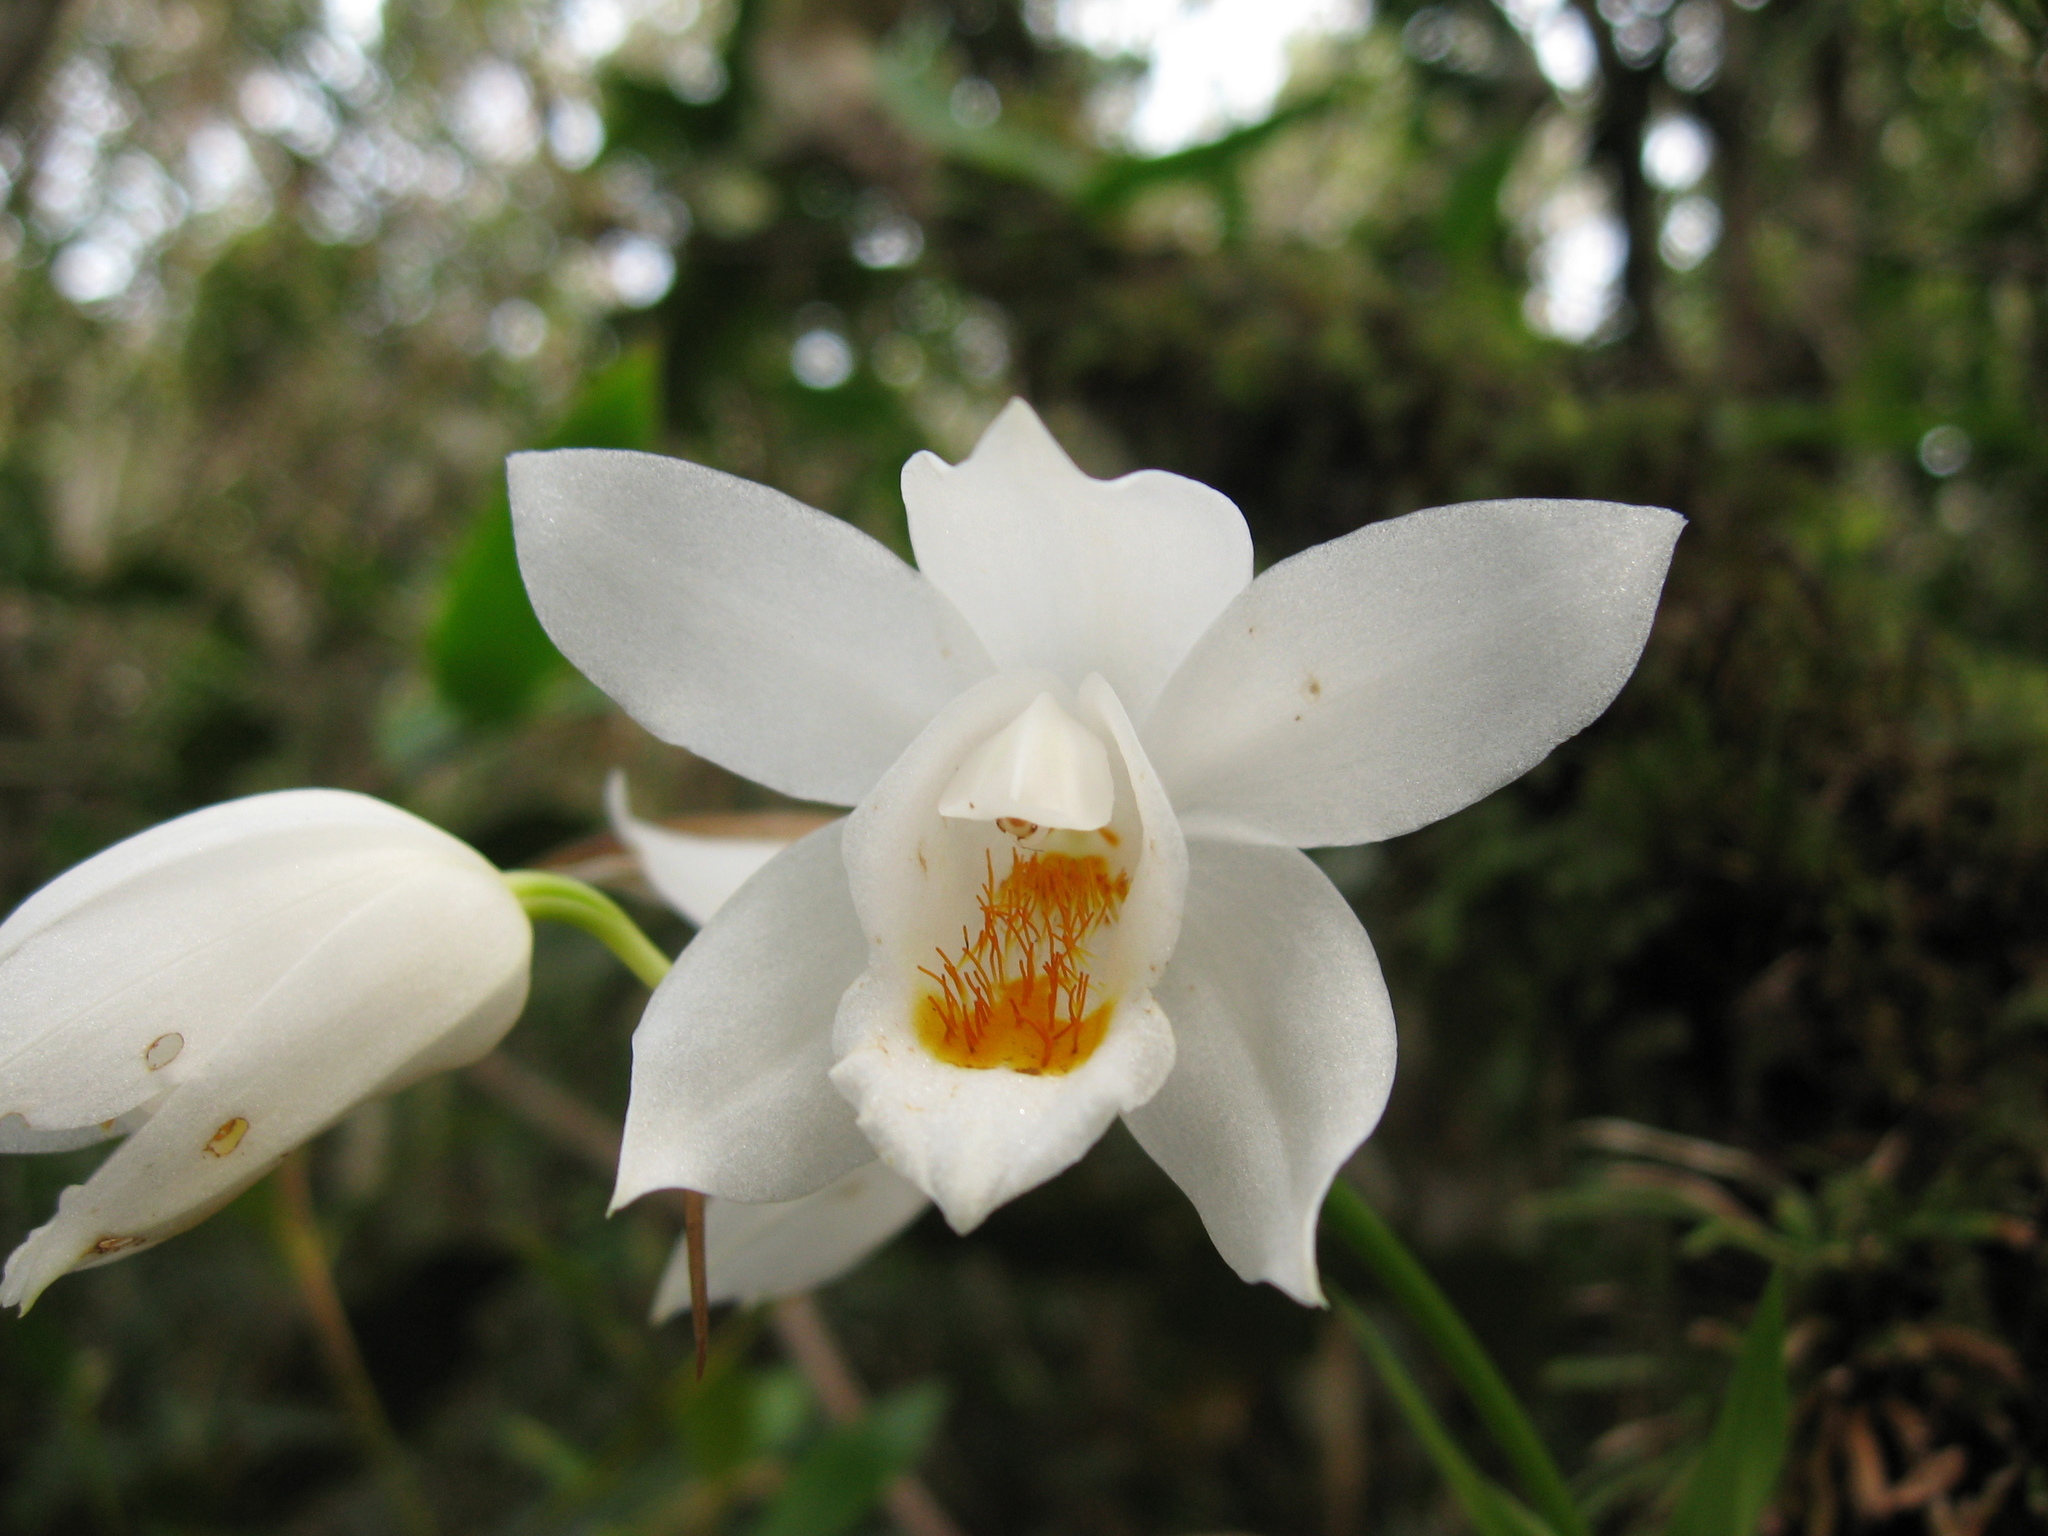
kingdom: Plantae
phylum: Tracheophyta
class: Liliopsida
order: Asparagales
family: Orchidaceae
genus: Coelogyne
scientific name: Coelogyne mooreana
